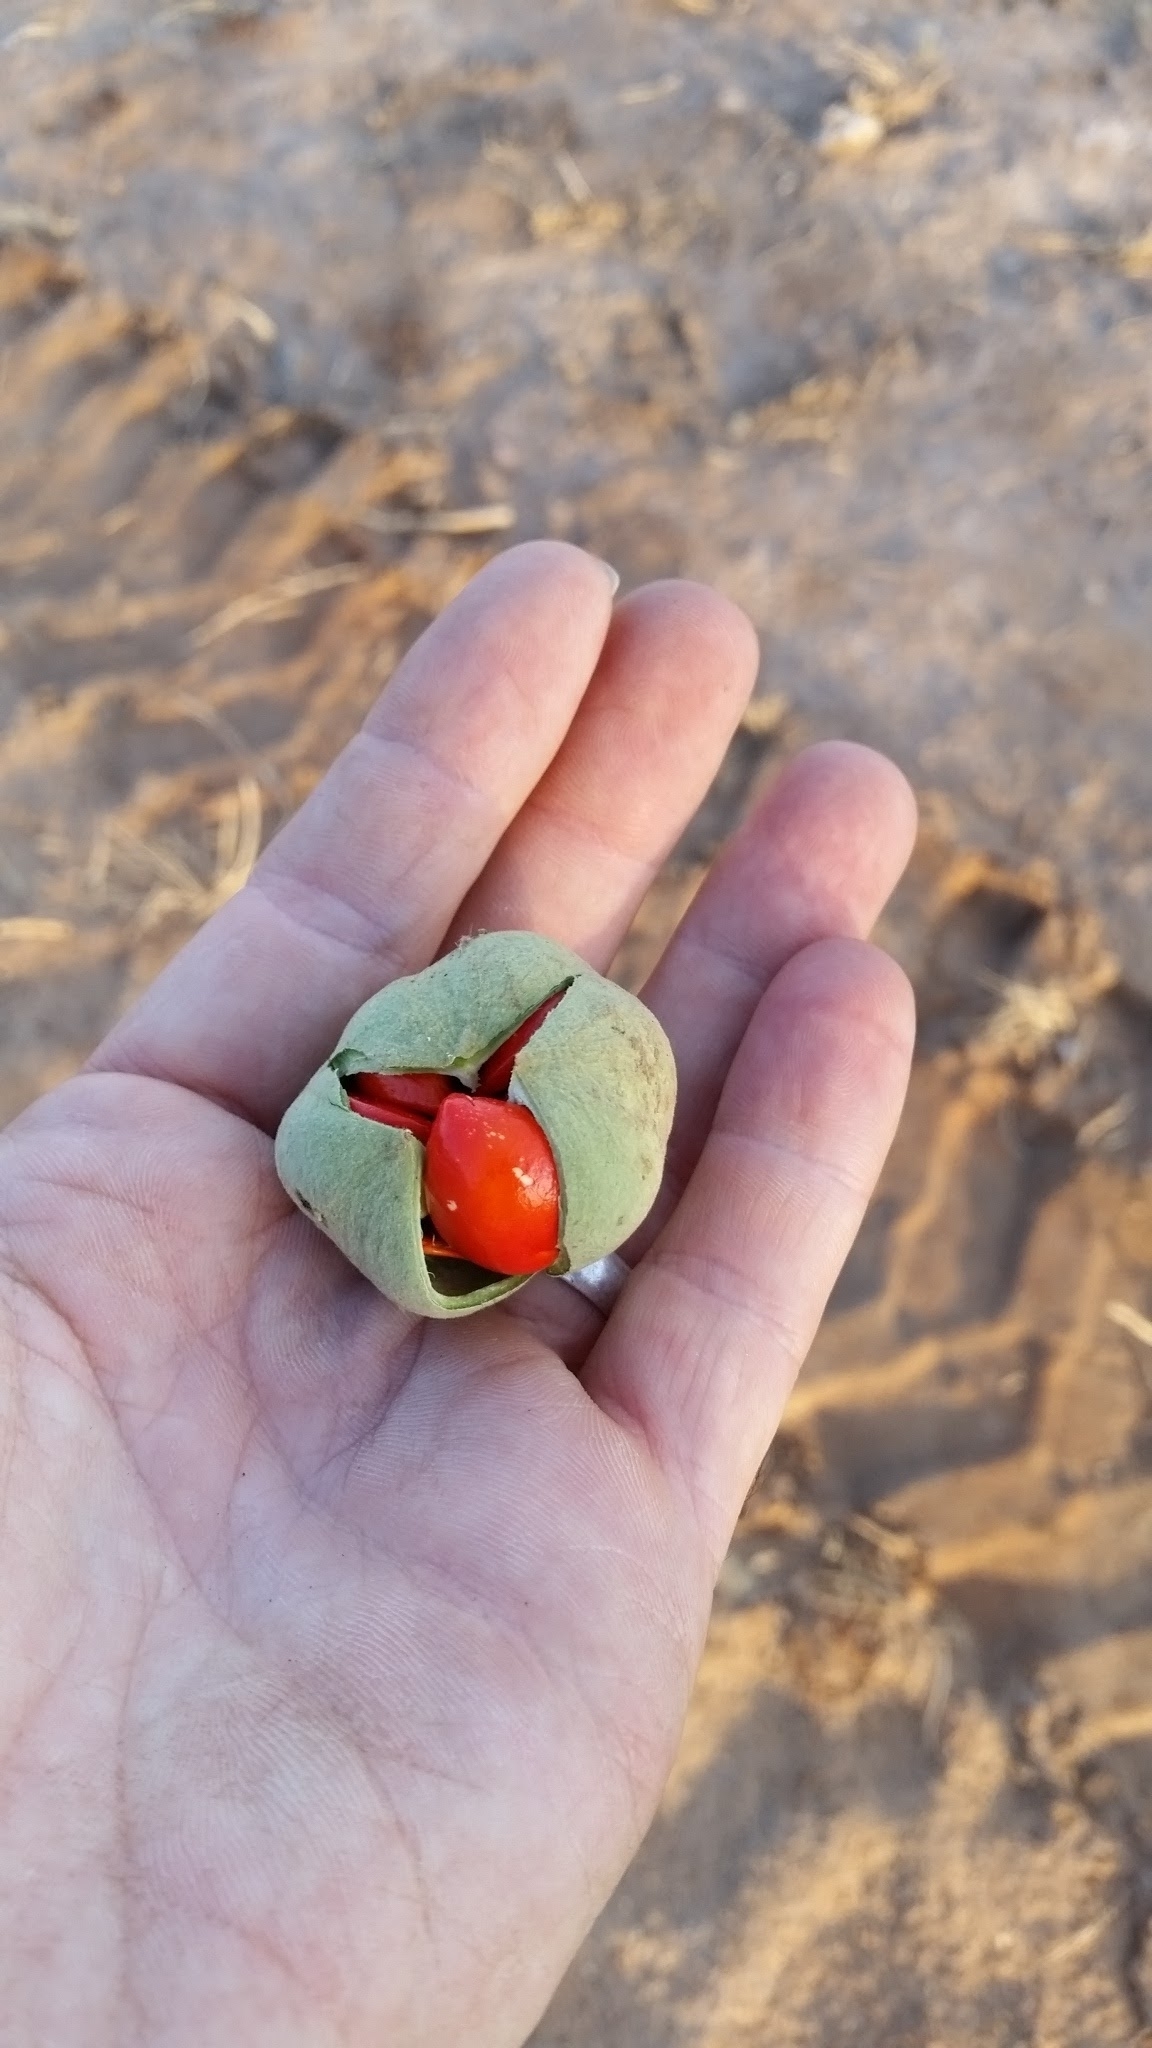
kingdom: Plantae
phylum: Tracheophyta
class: Magnoliopsida
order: Sapindales
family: Meliaceae
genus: Trichilia
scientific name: Trichilia emetica
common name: Christmas-bells
